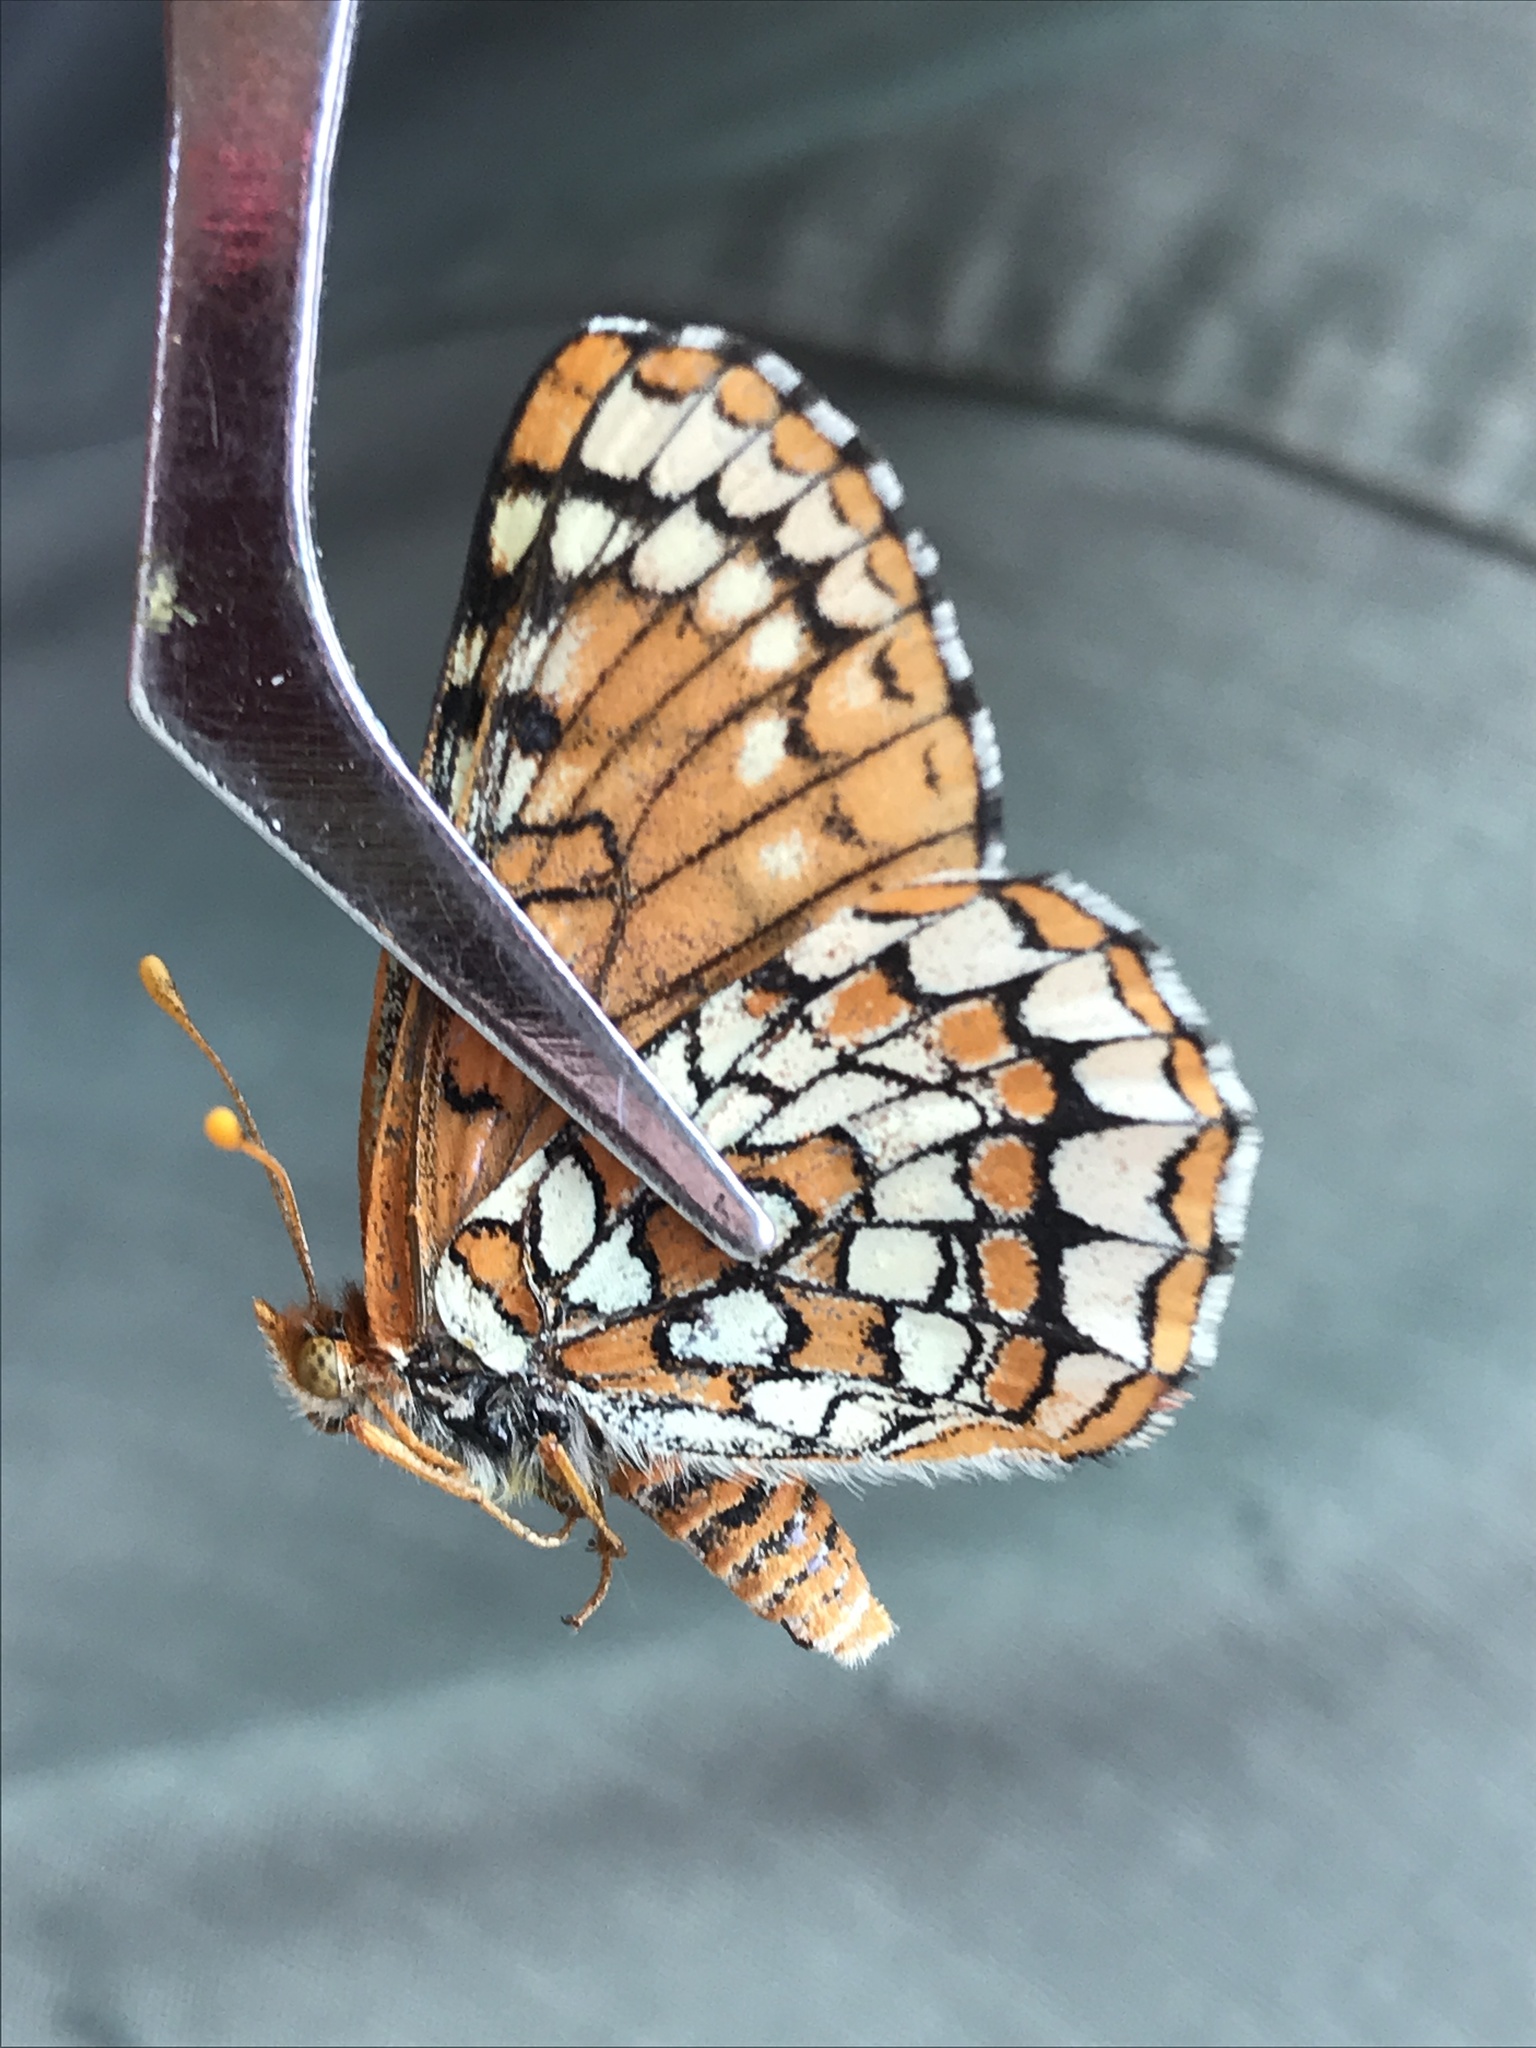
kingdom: Animalia
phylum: Arthropoda
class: Insecta
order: Lepidoptera
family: Nymphalidae
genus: Occidryas
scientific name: Occidryas anicia
